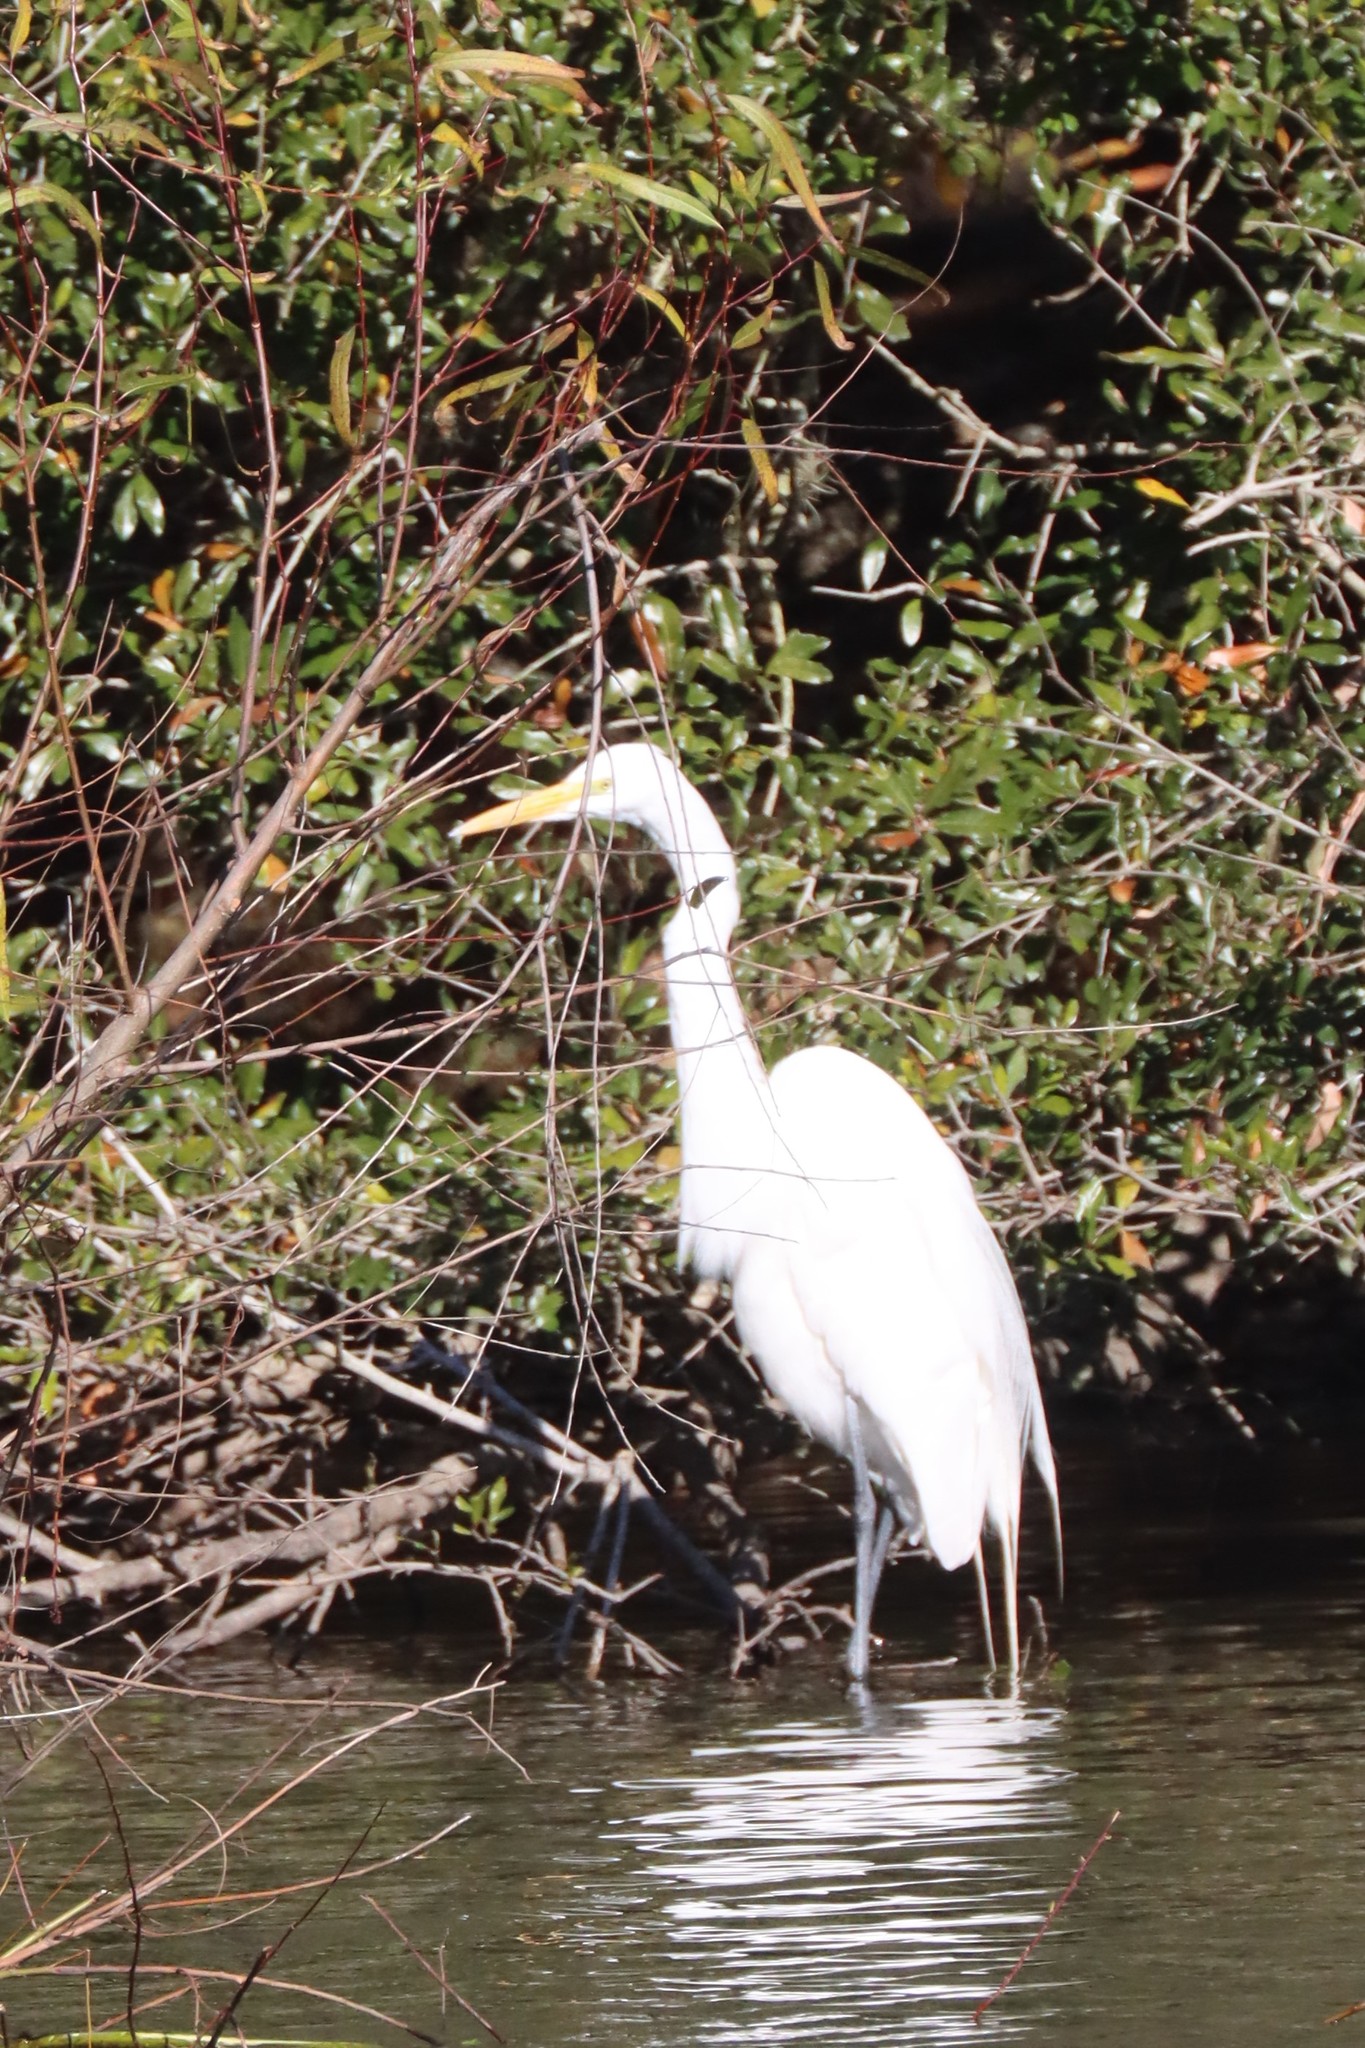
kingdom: Animalia
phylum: Chordata
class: Aves
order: Pelecaniformes
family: Ardeidae
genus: Ardea
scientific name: Ardea alba
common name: Great egret
